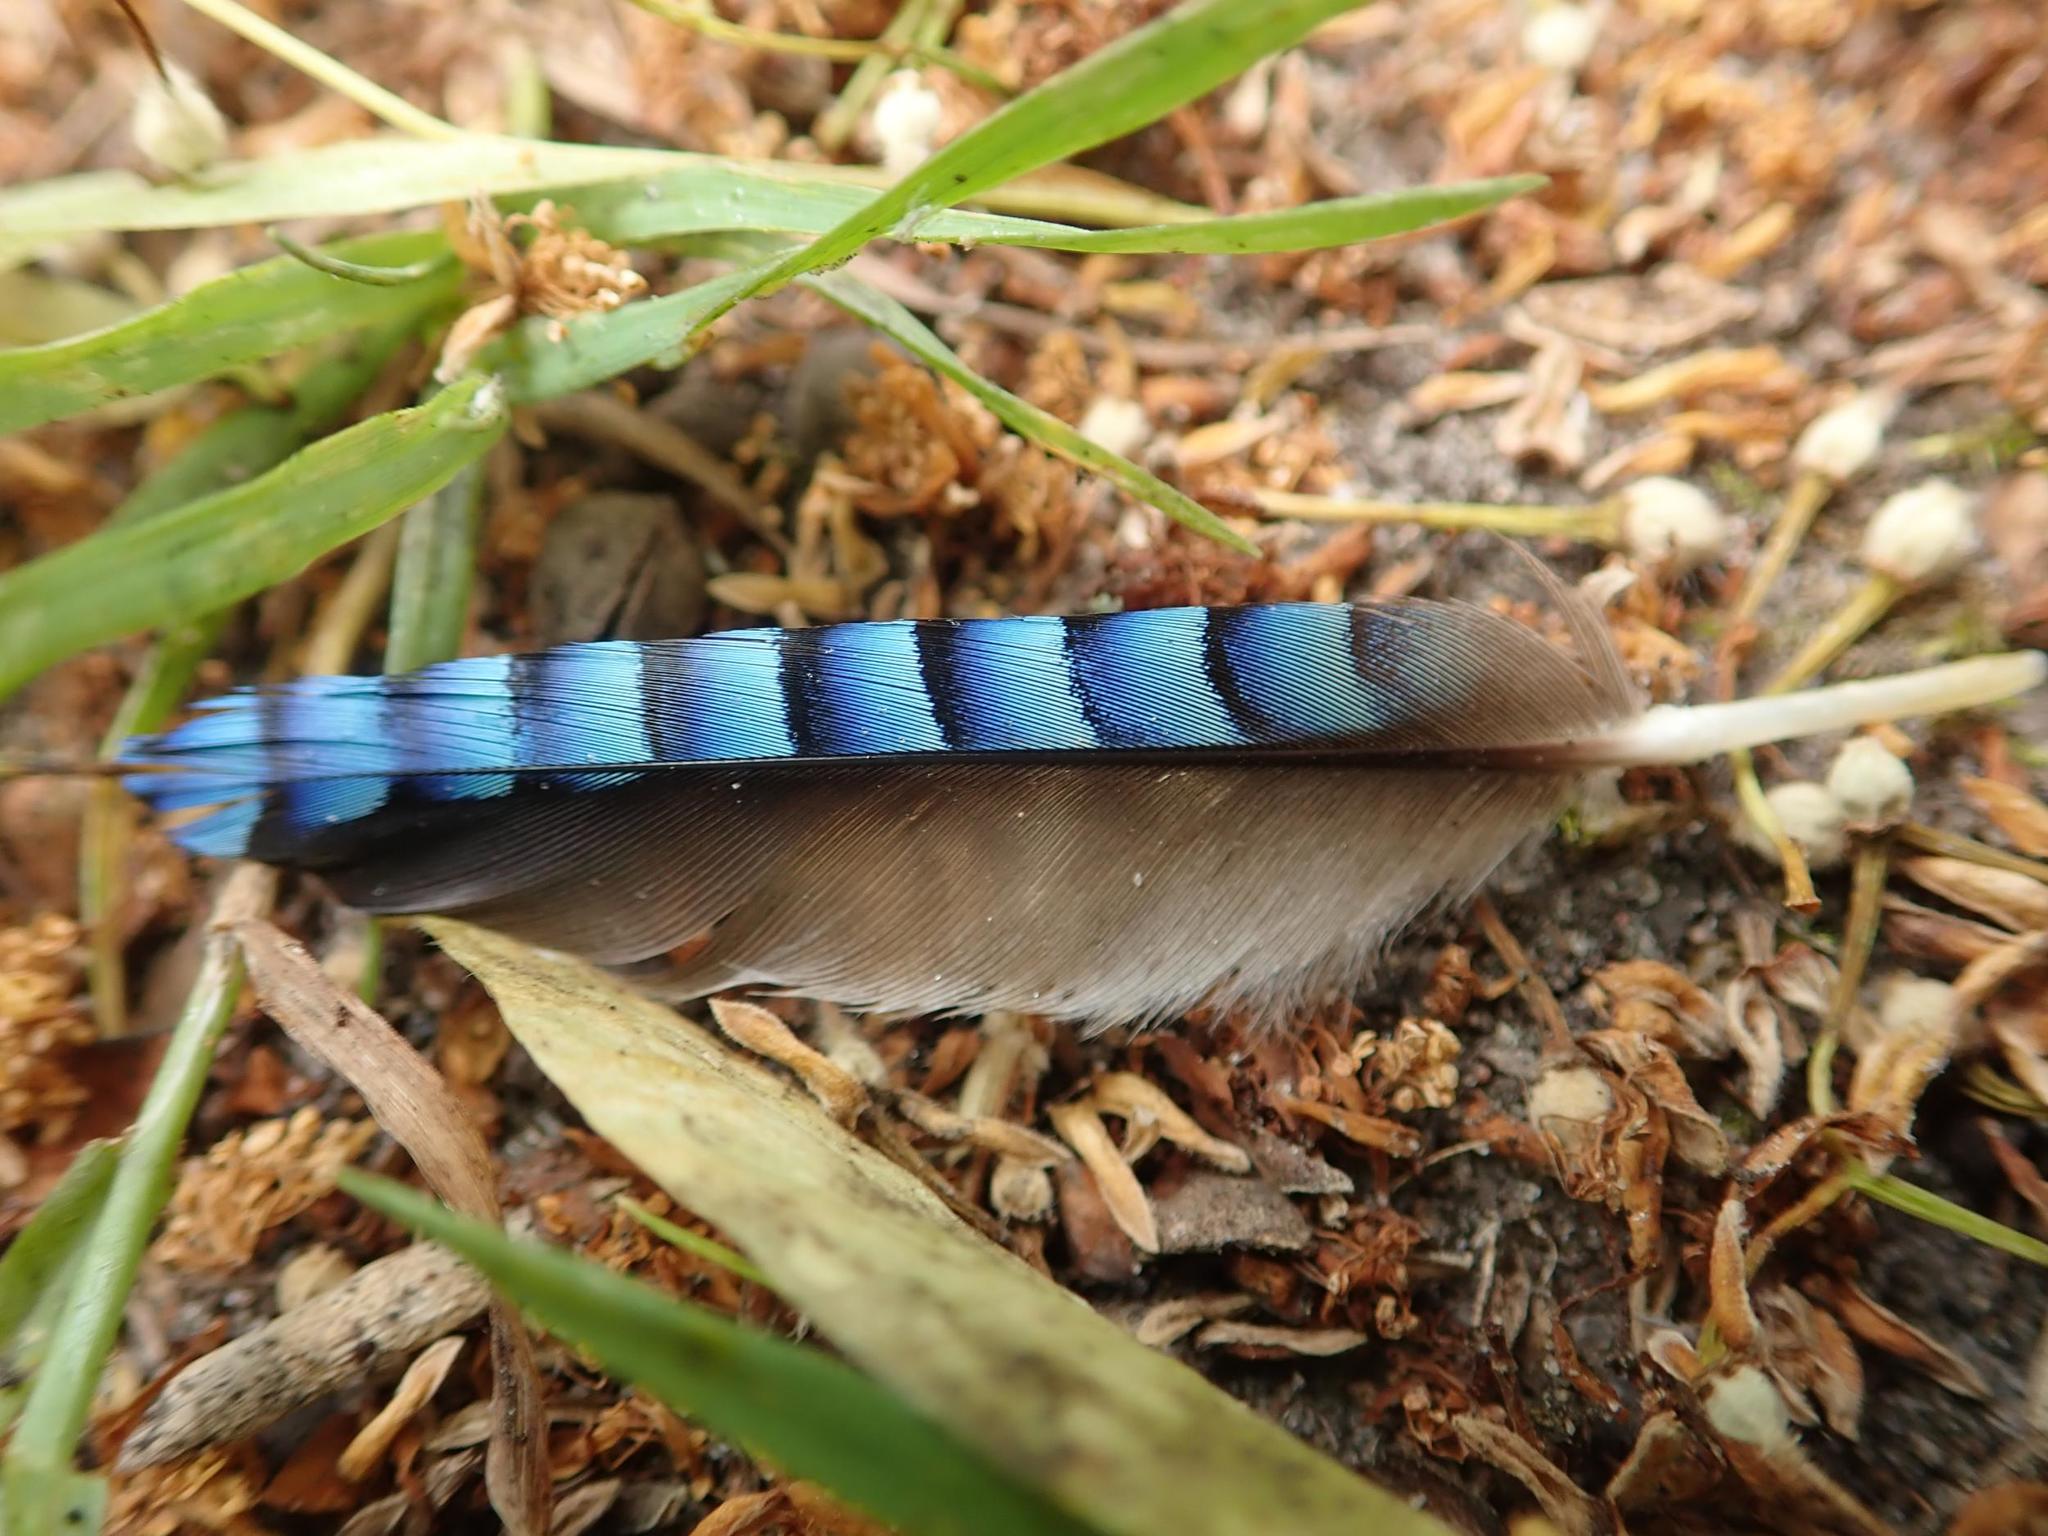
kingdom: Animalia
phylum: Chordata
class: Aves
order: Passeriformes
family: Corvidae
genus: Garrulus
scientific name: Garrulus glandarius
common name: Eurasian jay
